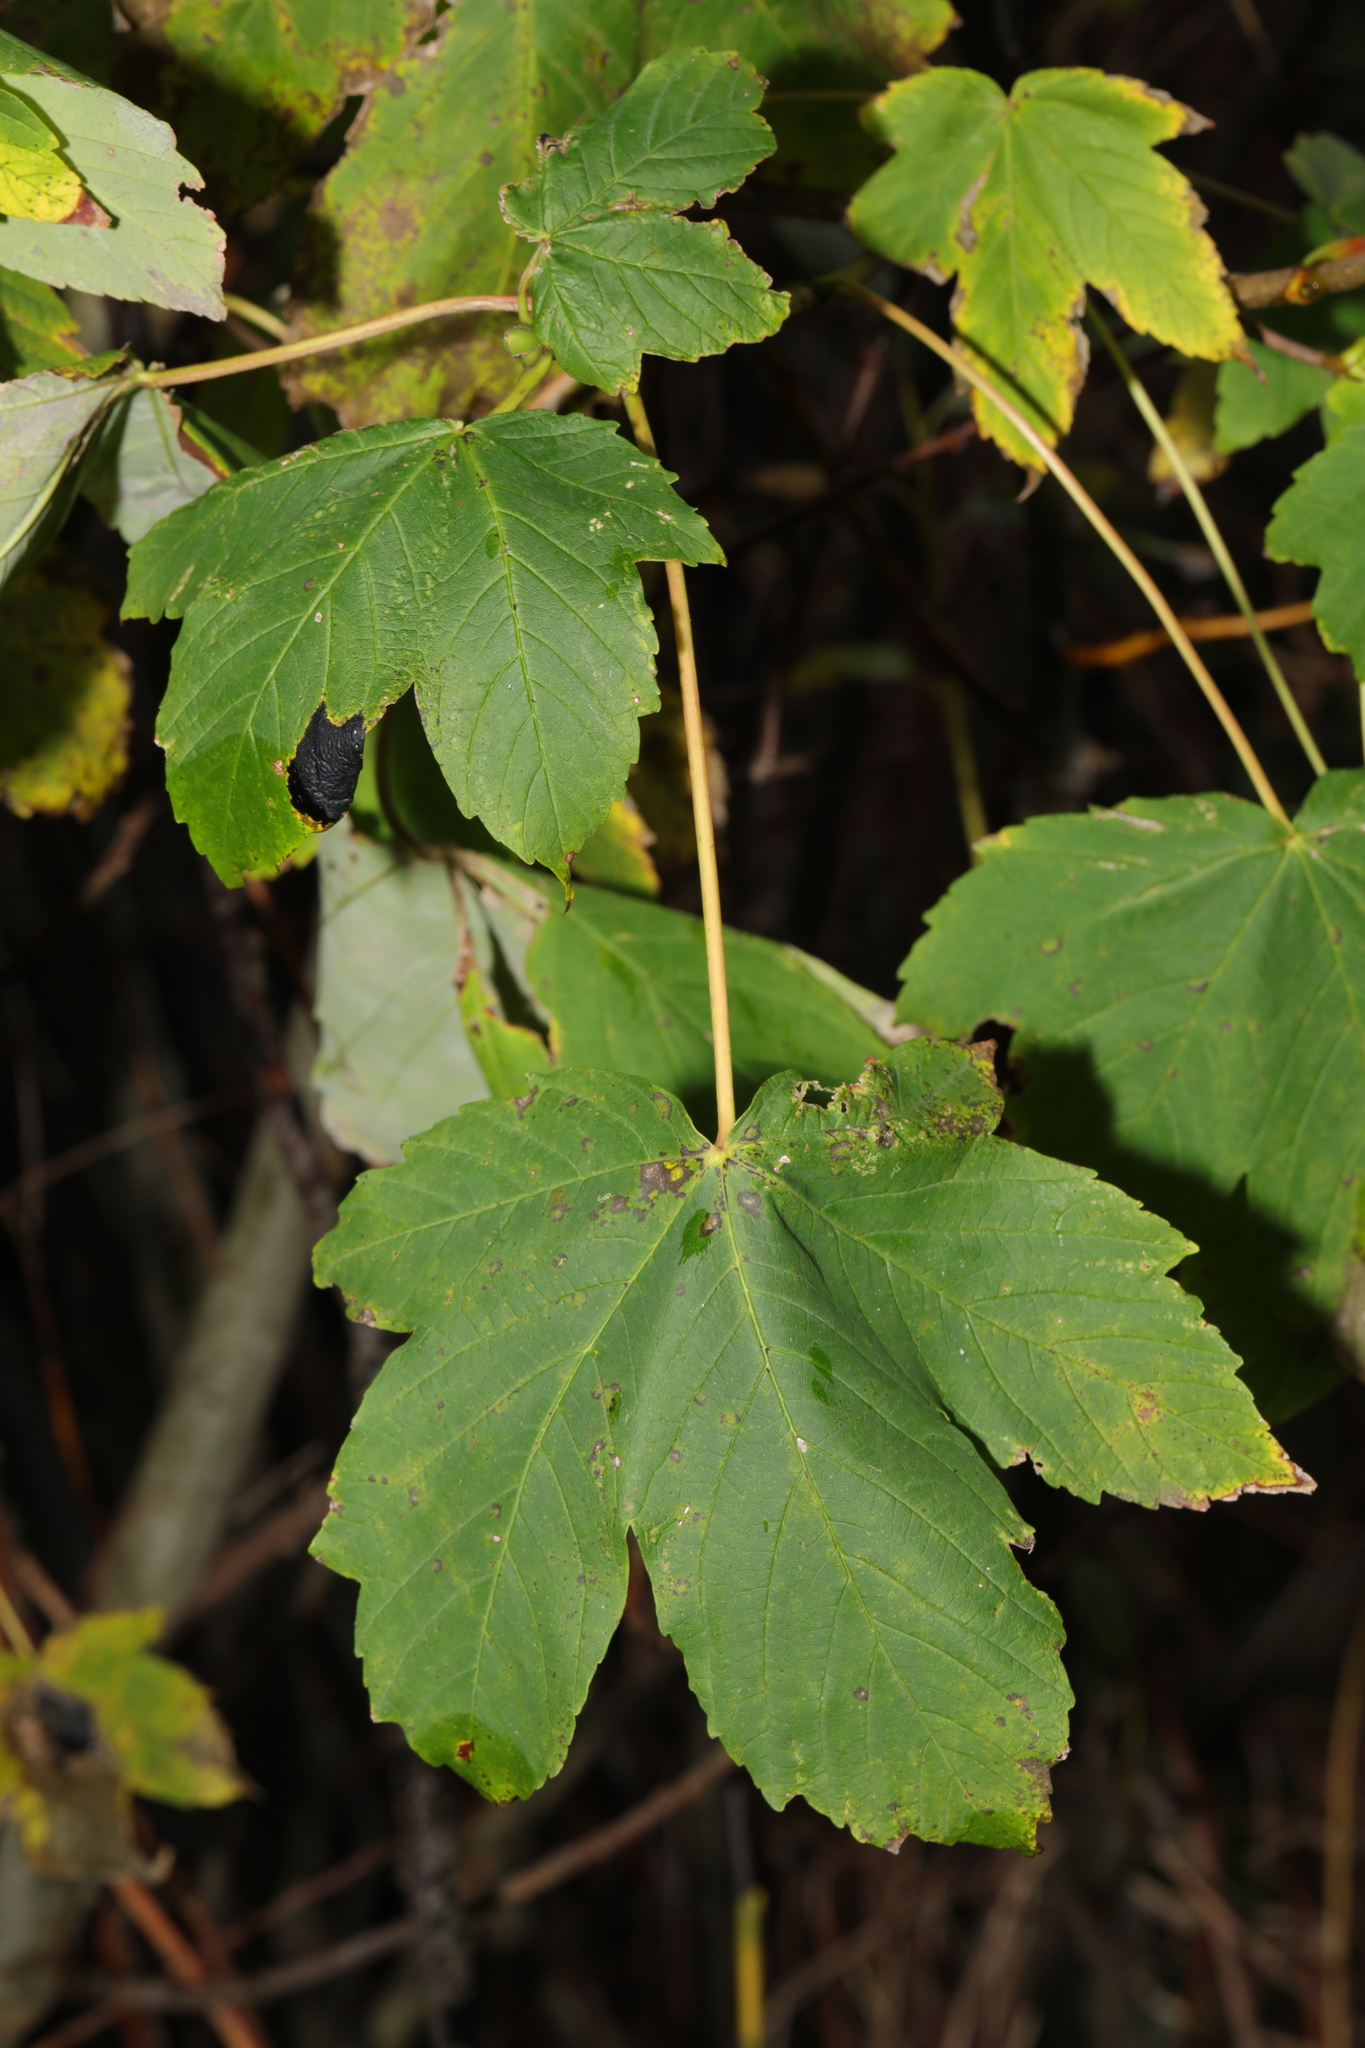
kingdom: Plantae
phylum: Tracheophyta
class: Magnoliopsida
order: Sapindales
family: Sapindaceae
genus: Acer
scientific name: Acer pseudoplatanus
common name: Sycamore
